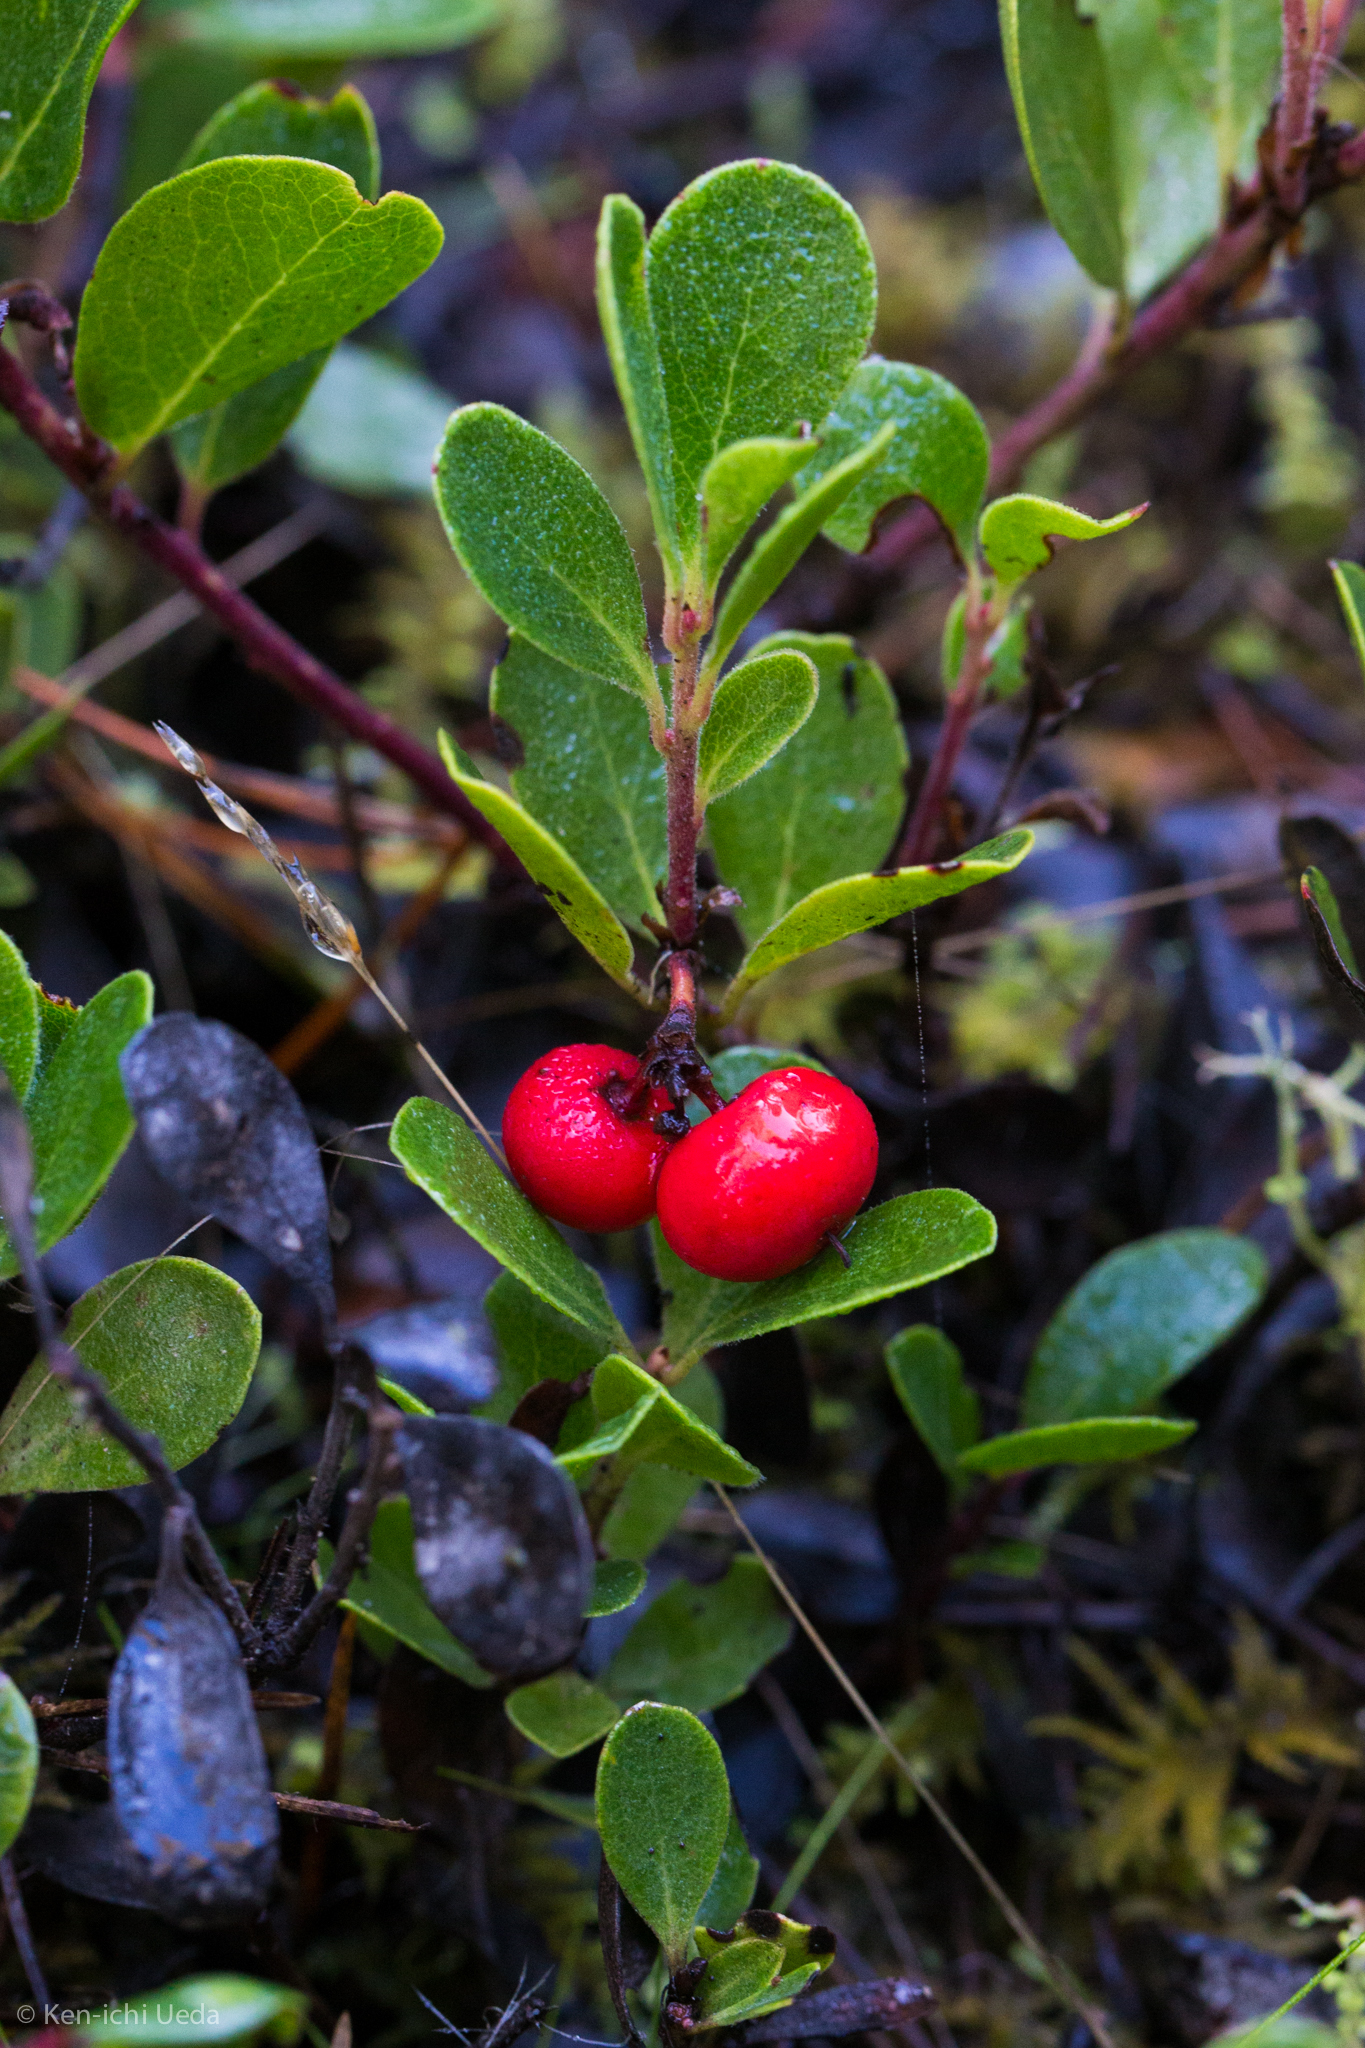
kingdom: Plantae
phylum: Tracheophyta
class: Magnoliopsida
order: Ericales
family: Ericaceae
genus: Arctostaphylos
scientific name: Arctostaphylos uva-ursi
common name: Bearberry
